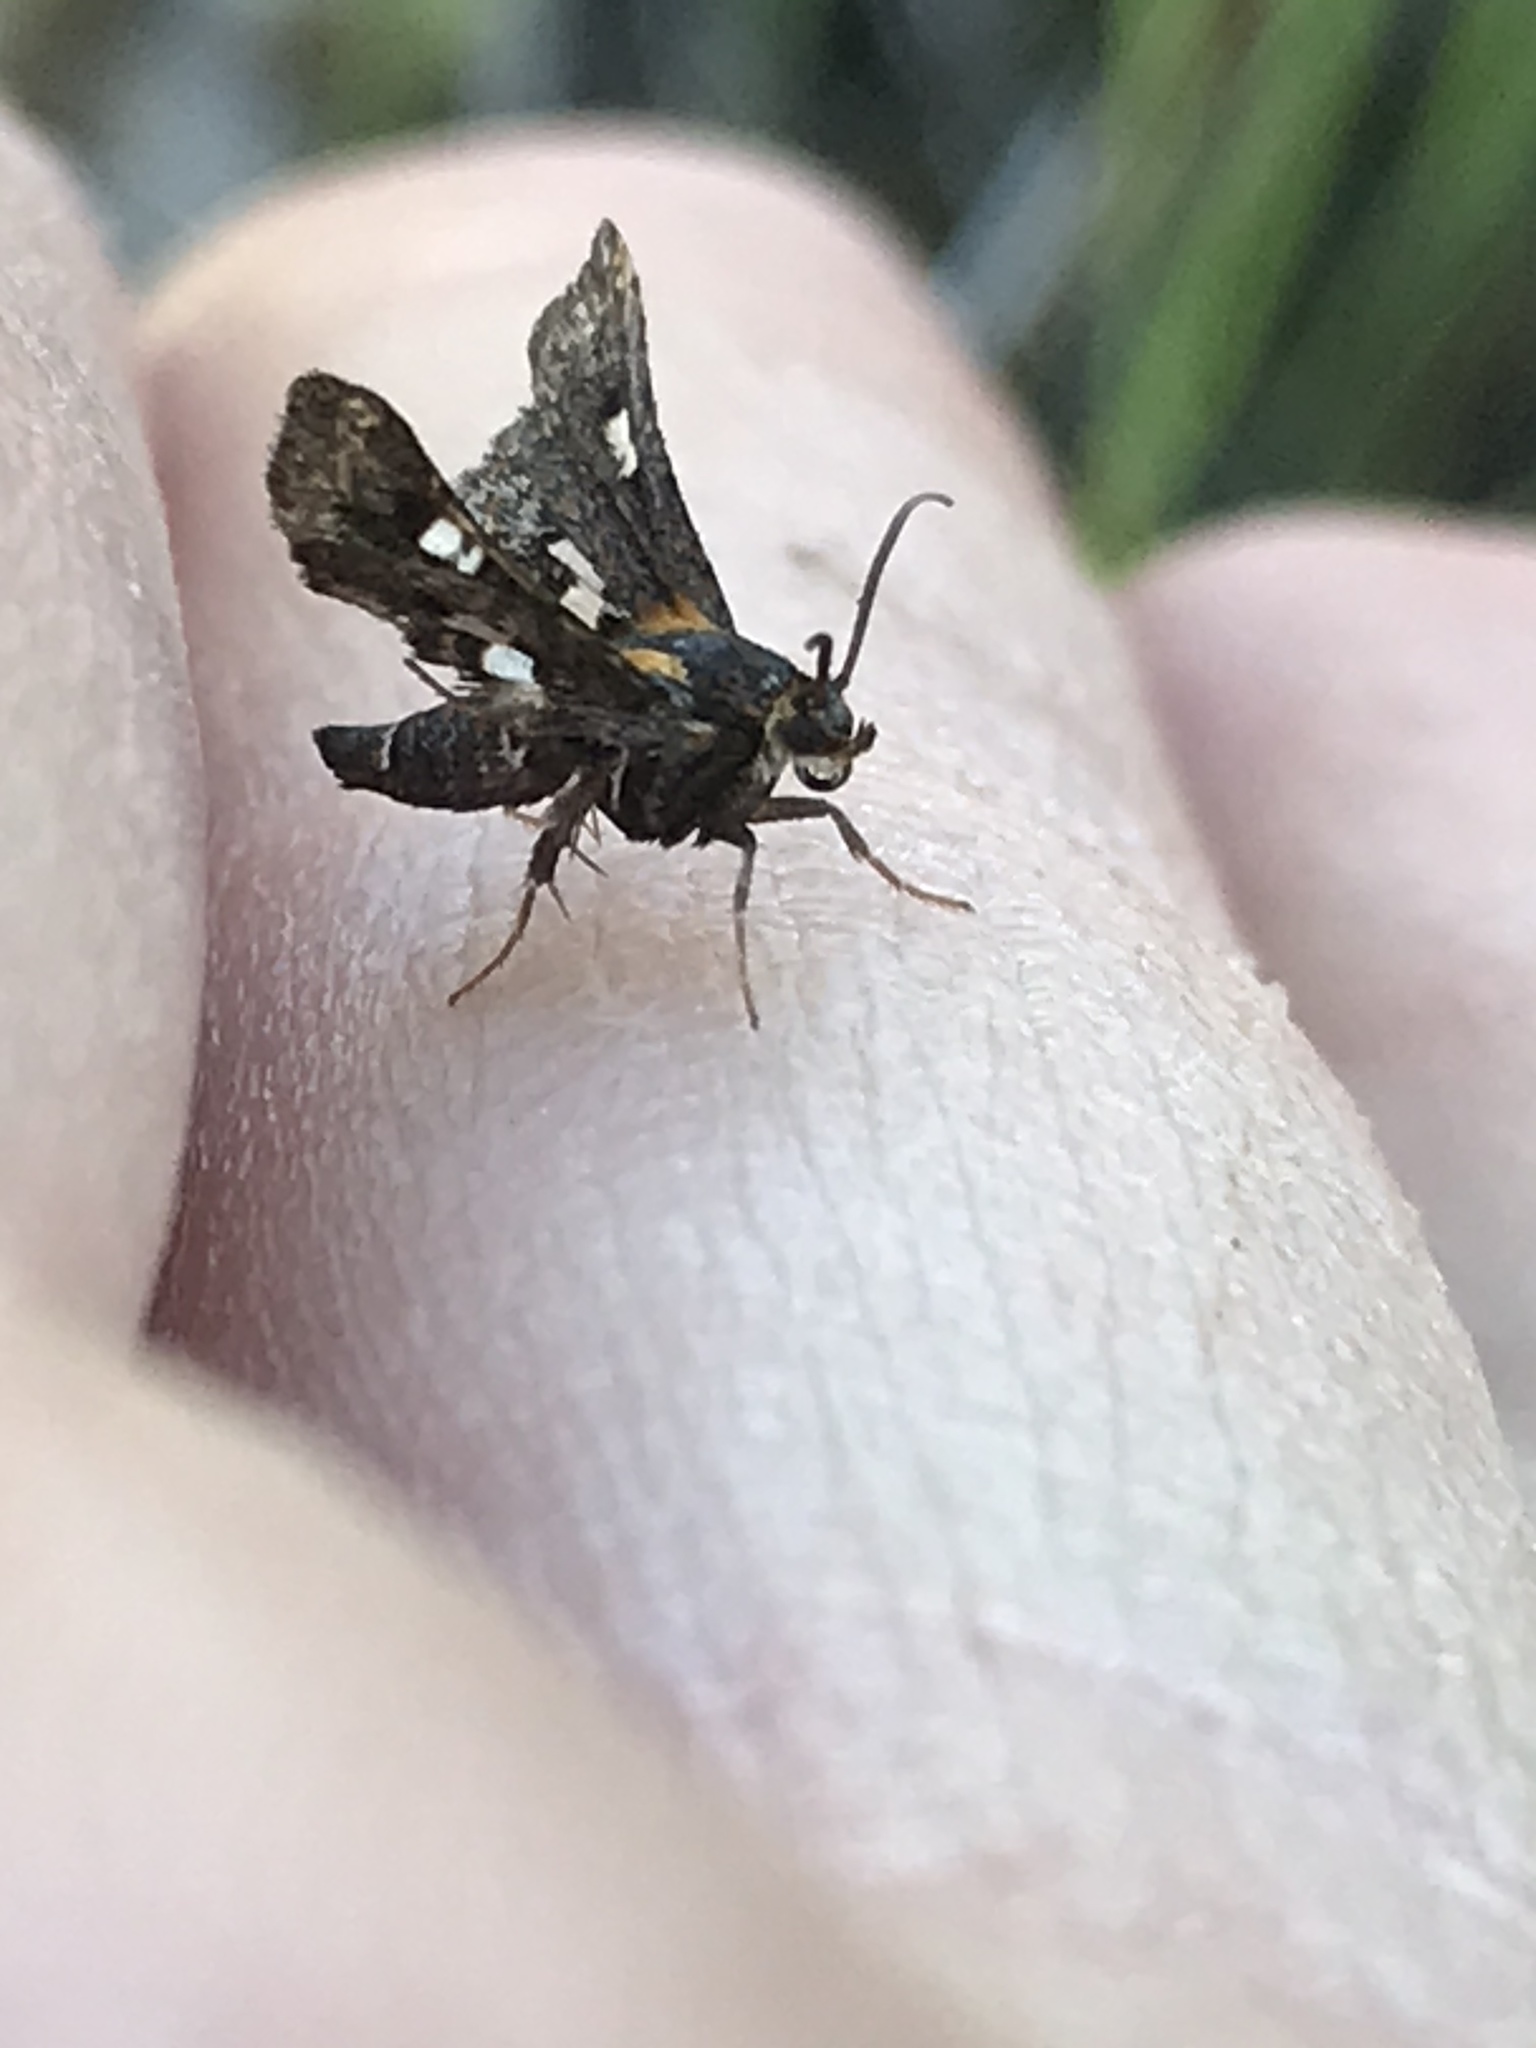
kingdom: Animalia
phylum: Arthropoda
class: Insecta
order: Lepidoptera
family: Thyrididae
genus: Thyris
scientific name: Thyris maculata
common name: Spotted thyris moth
